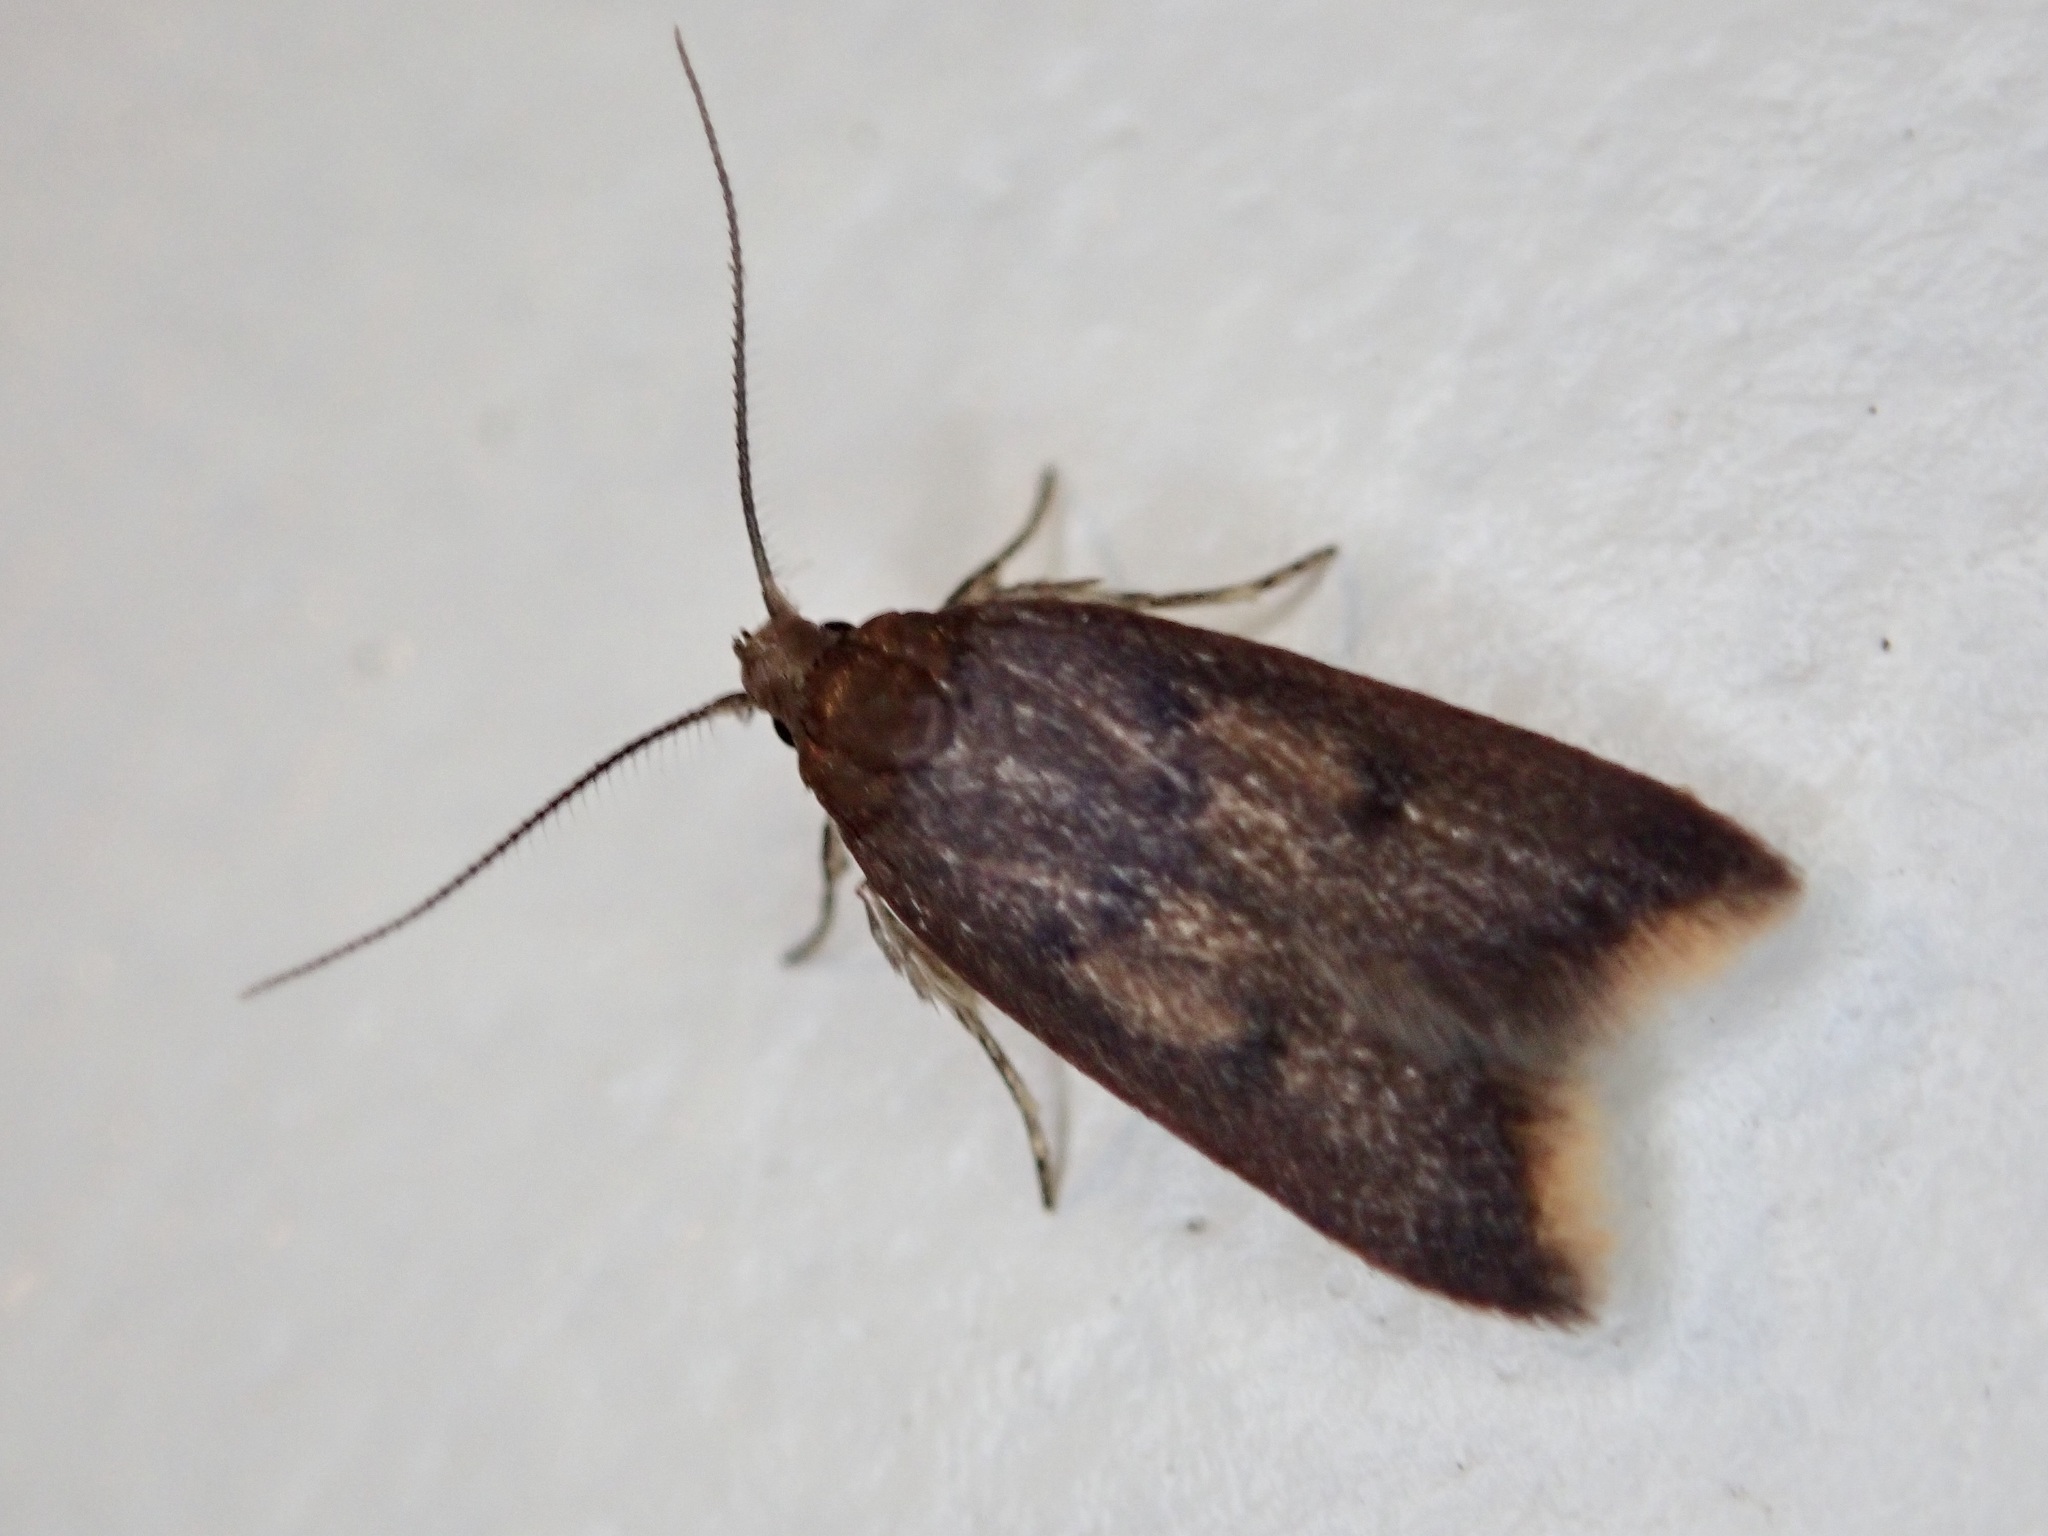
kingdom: Animalia
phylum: Arthropoda
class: Insecta
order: Lepidoptera
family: Oecophoridae
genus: Tachystola
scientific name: Tachystola acroxantha
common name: Ruddy streak
